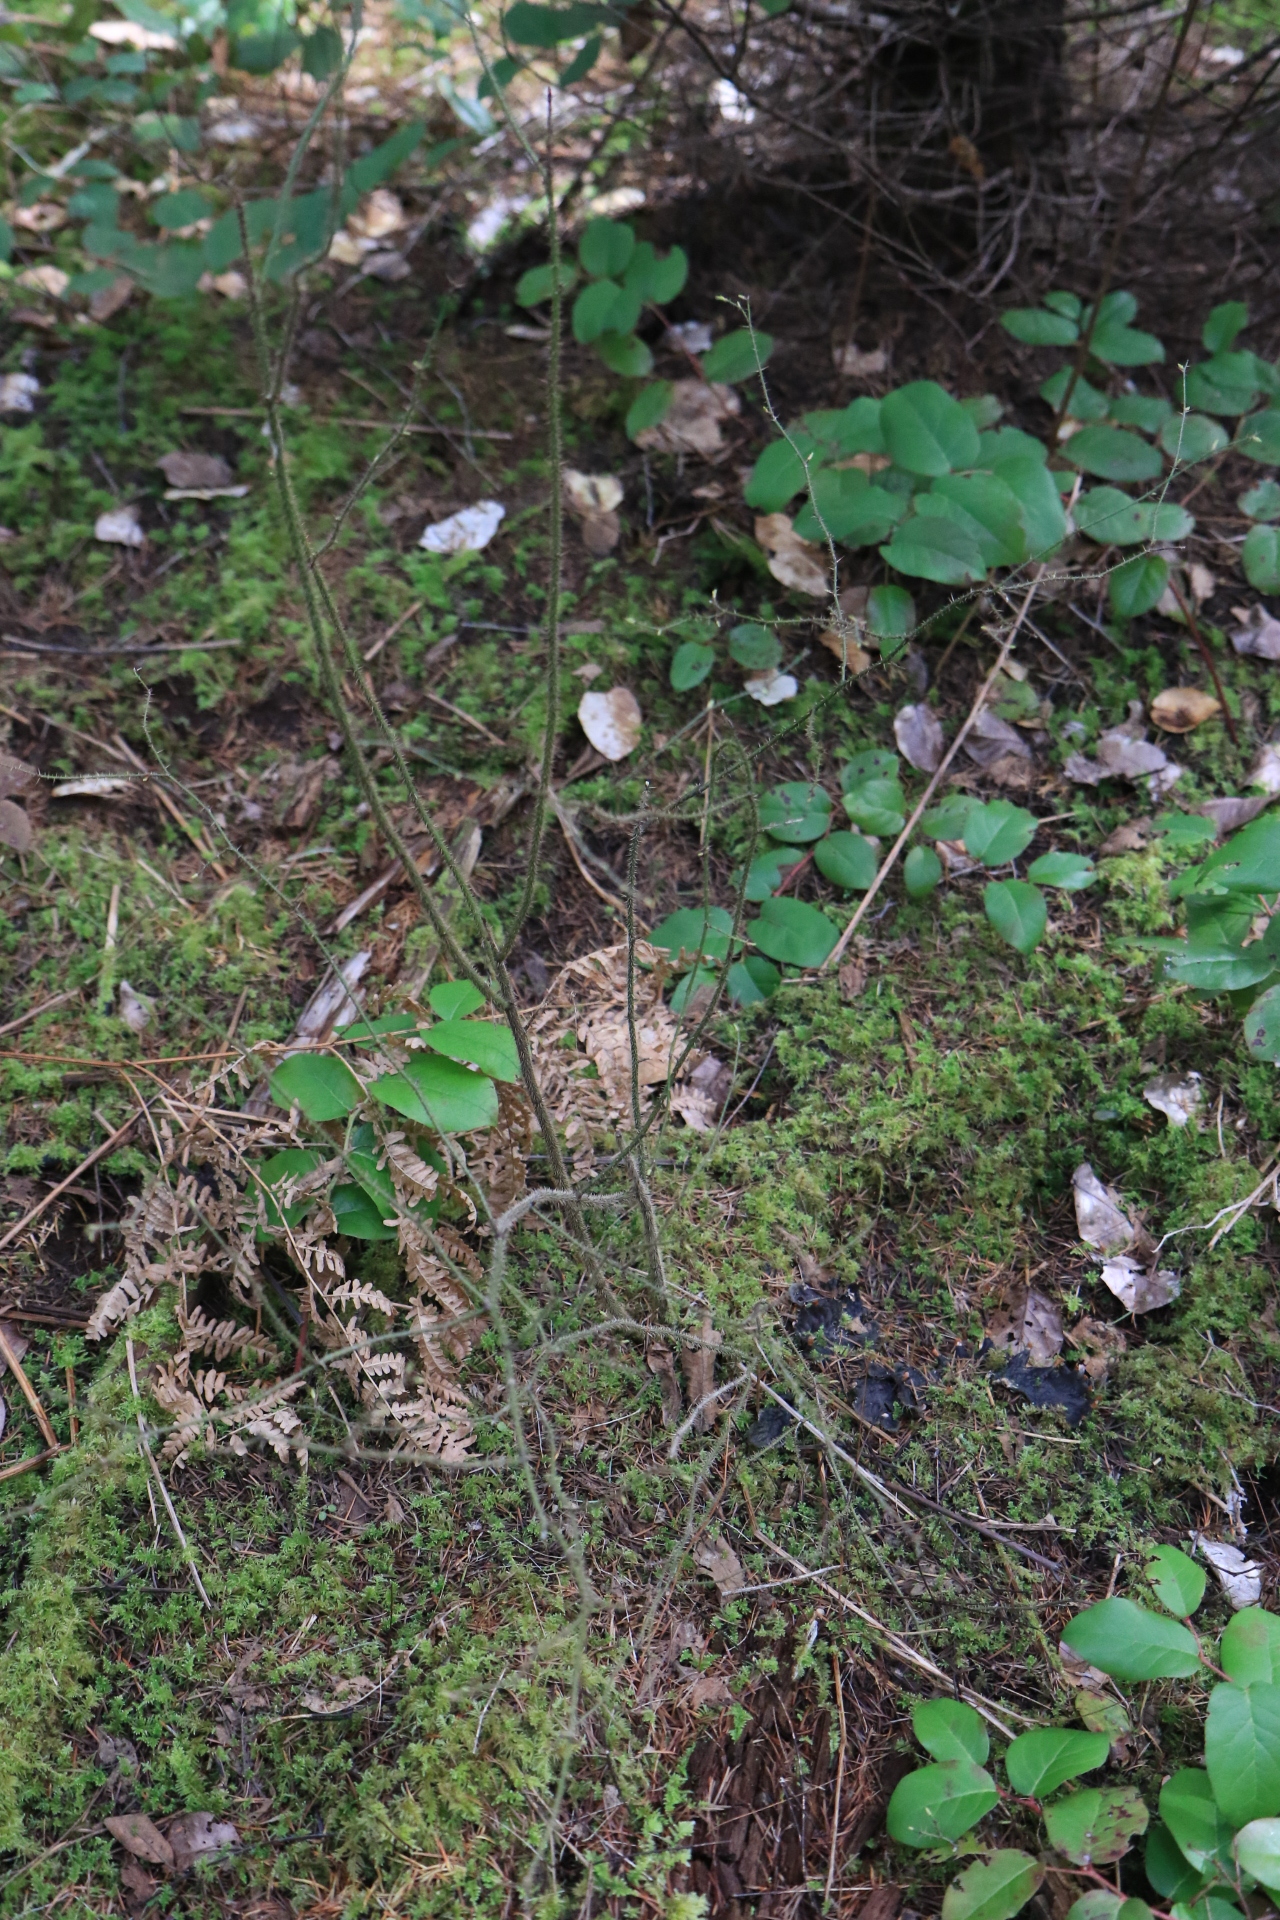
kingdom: Plantae
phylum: Tracheophyta
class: Magnoliopsida
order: Rosales
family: Rosaceae
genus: Rosa
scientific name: Rosa gymnocarpa
